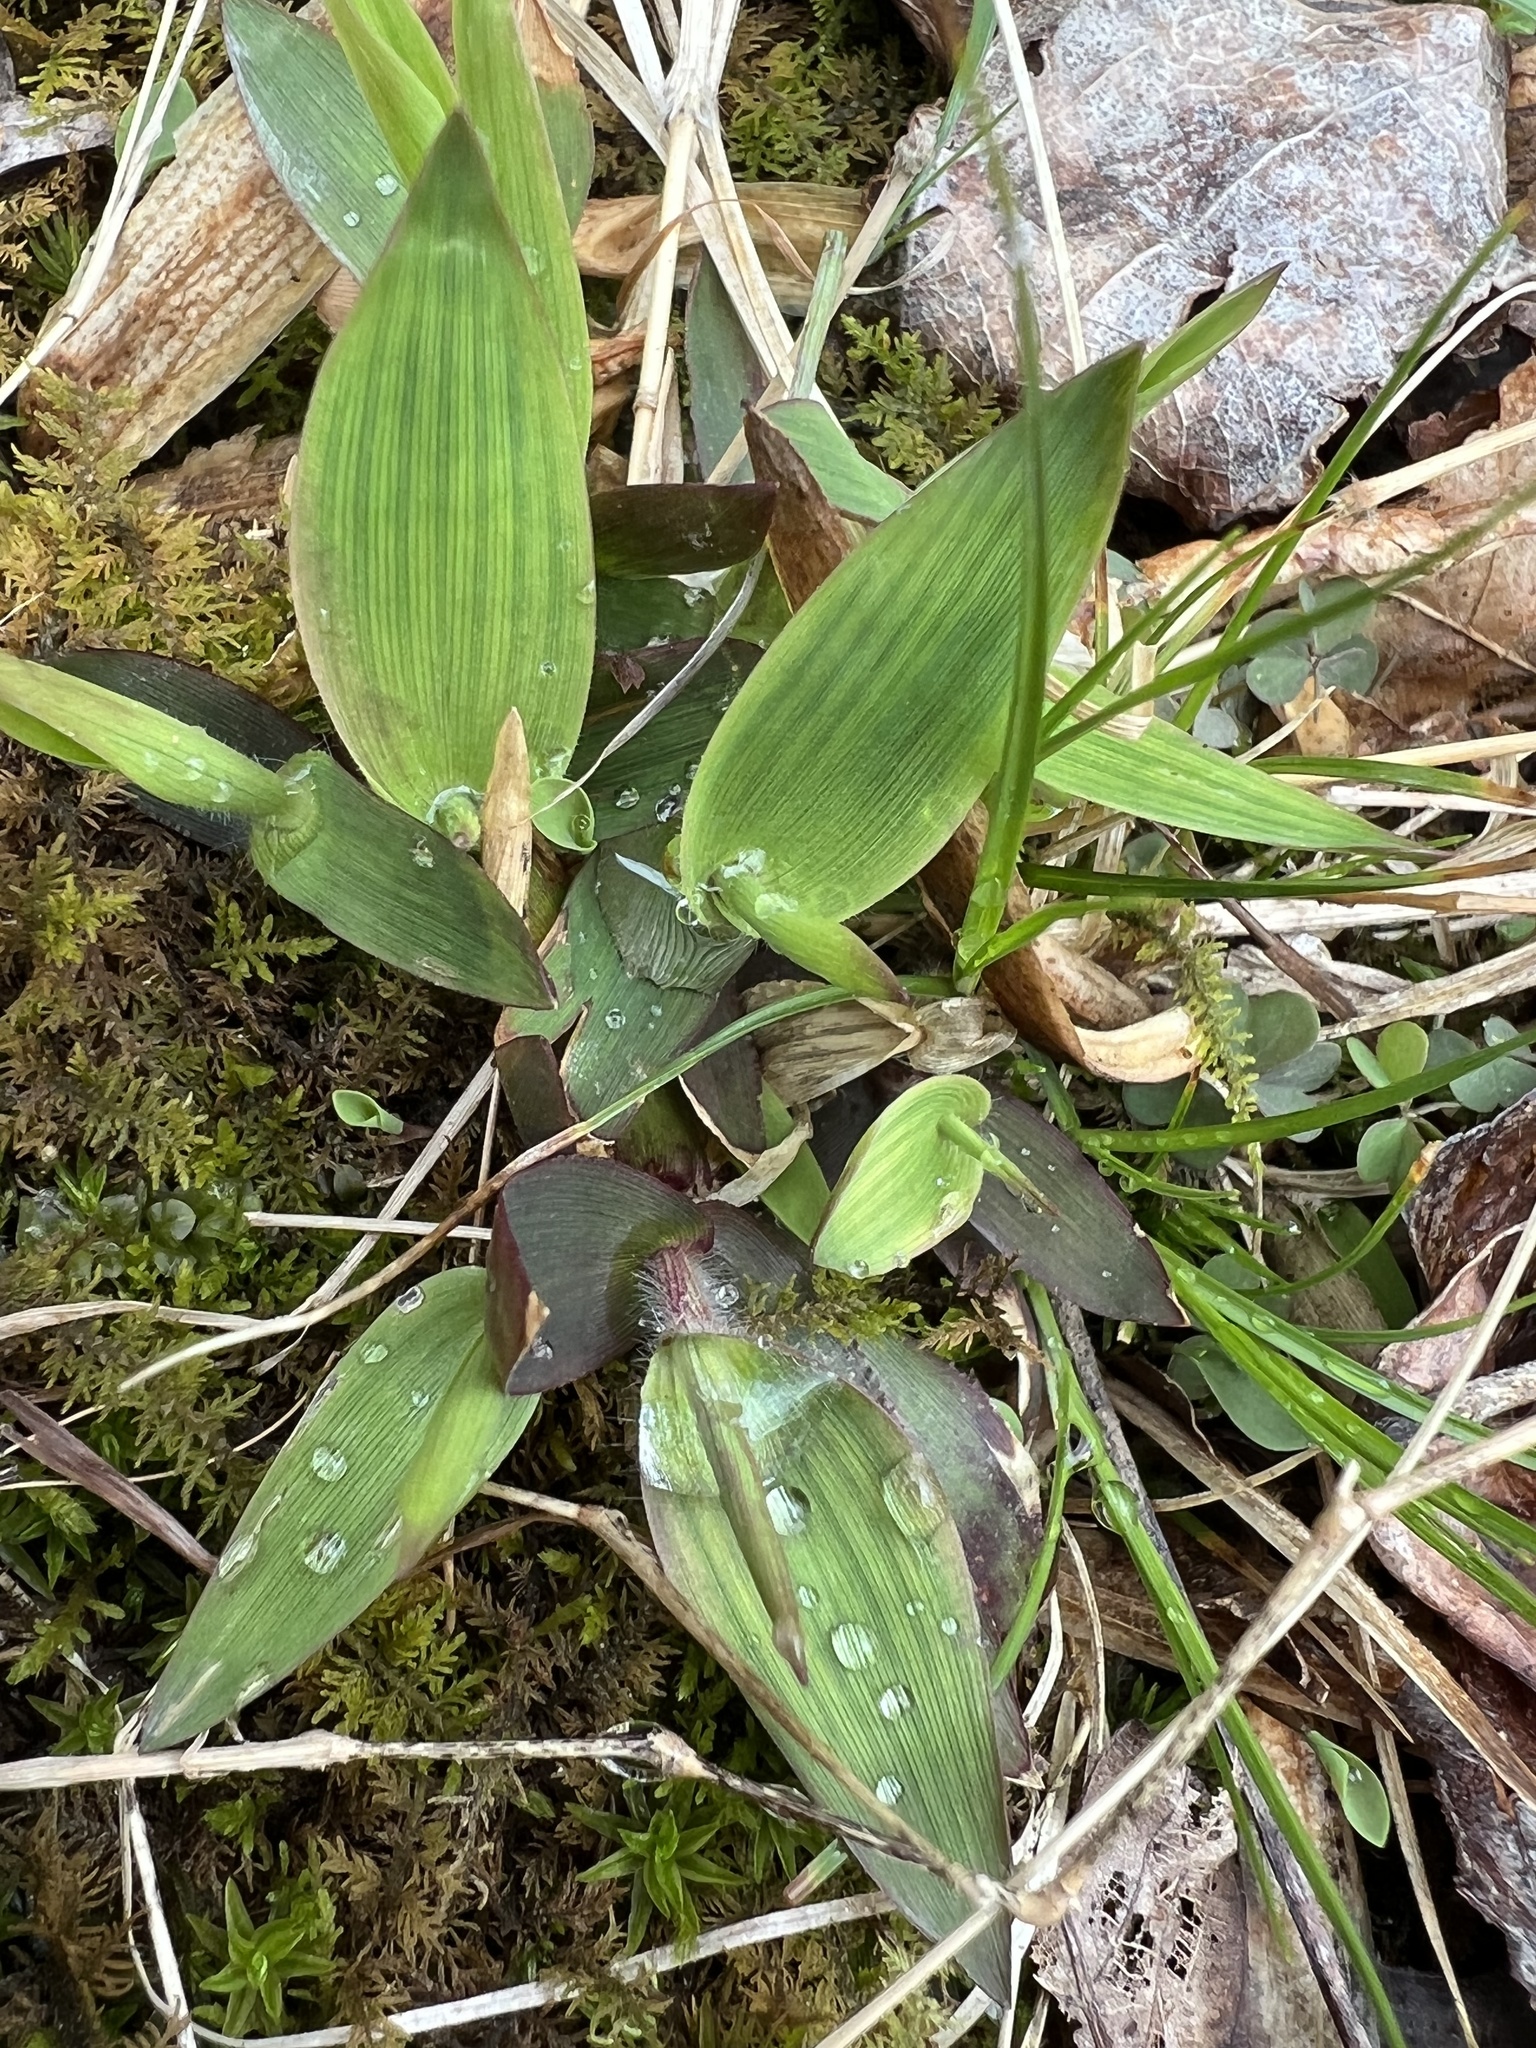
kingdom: Plantae
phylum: Tracheophyta
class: Liliopsida
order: Poales
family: Poaceae
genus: Dichanthelium
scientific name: Dichanthelium clandestinum
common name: Deer-tongue grass
